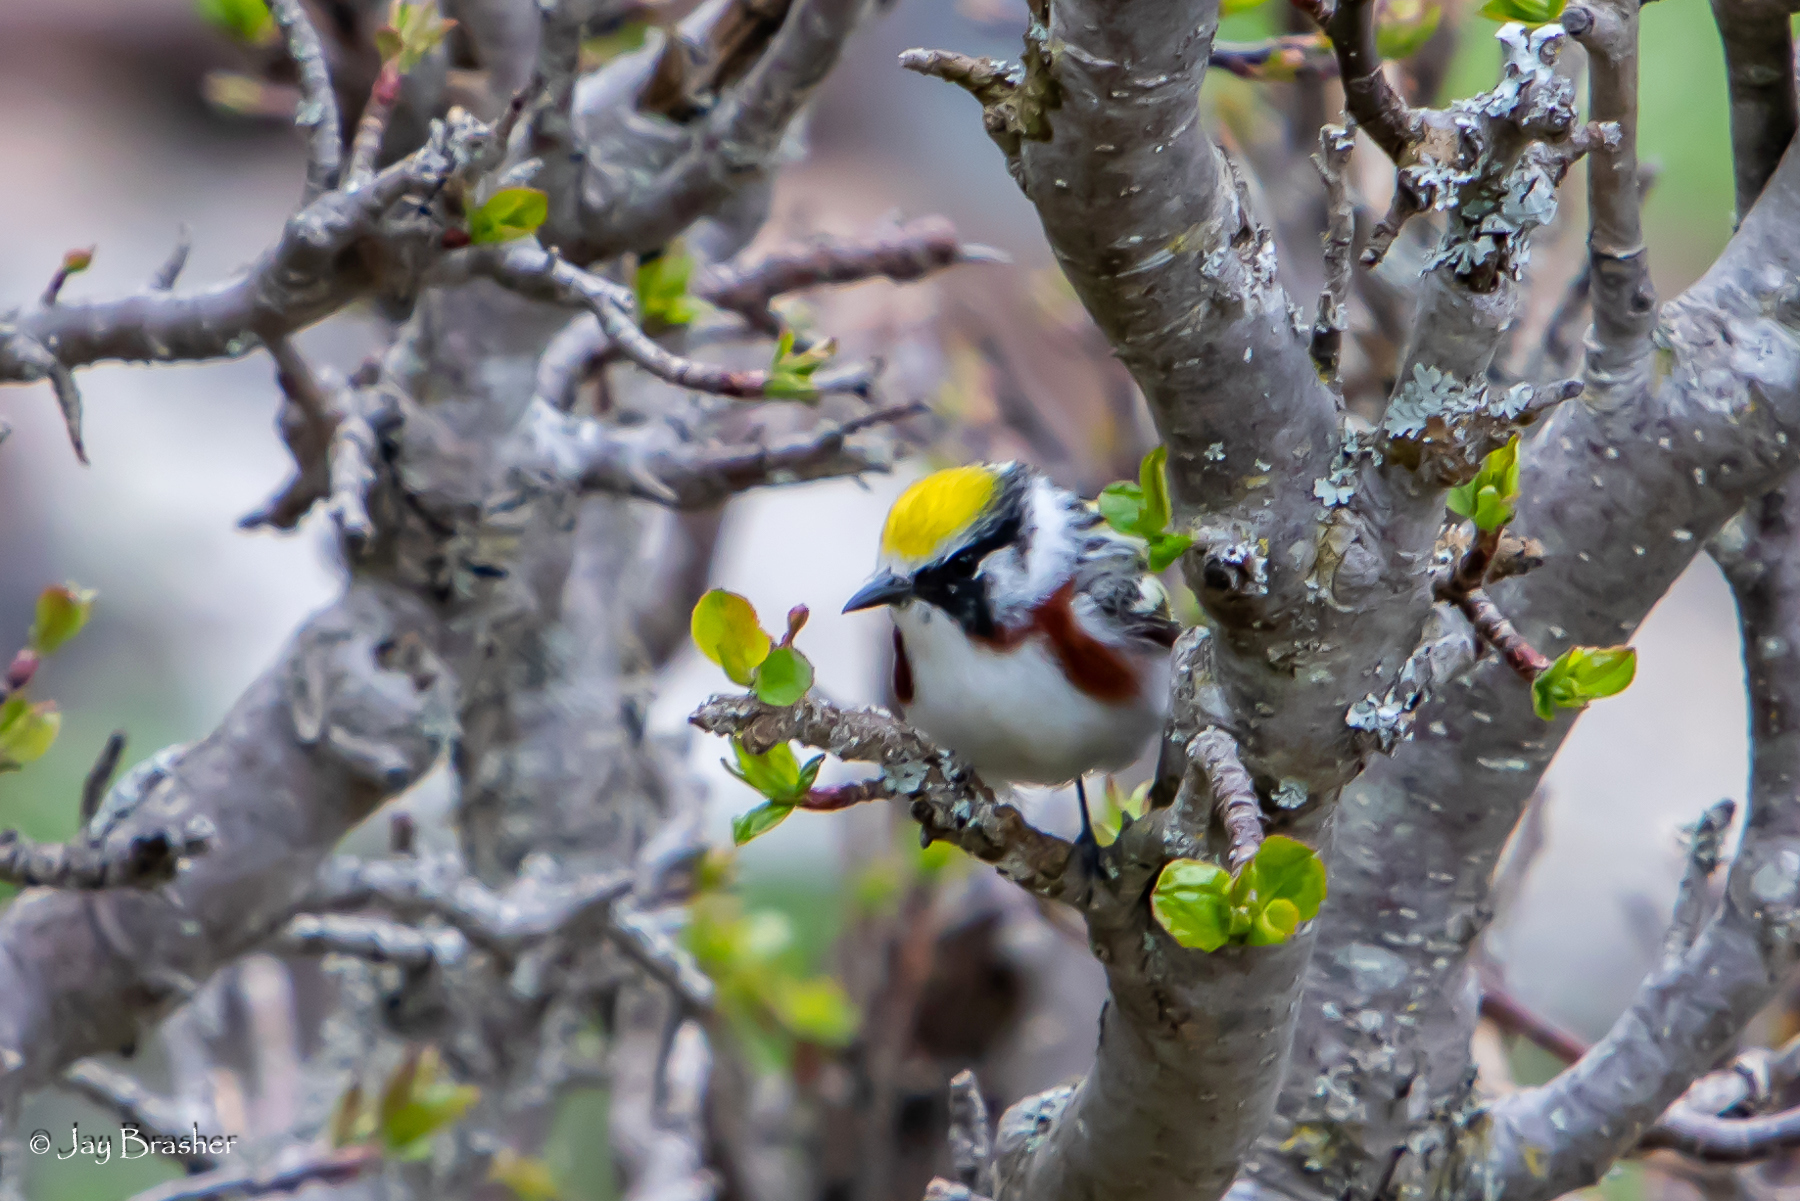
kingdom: Animalia
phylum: Chordata
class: Aves
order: Passeriformes
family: Parulidae
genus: Setophaga
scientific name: Setophaga pensylvanica
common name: Chestnut-sided warbler
